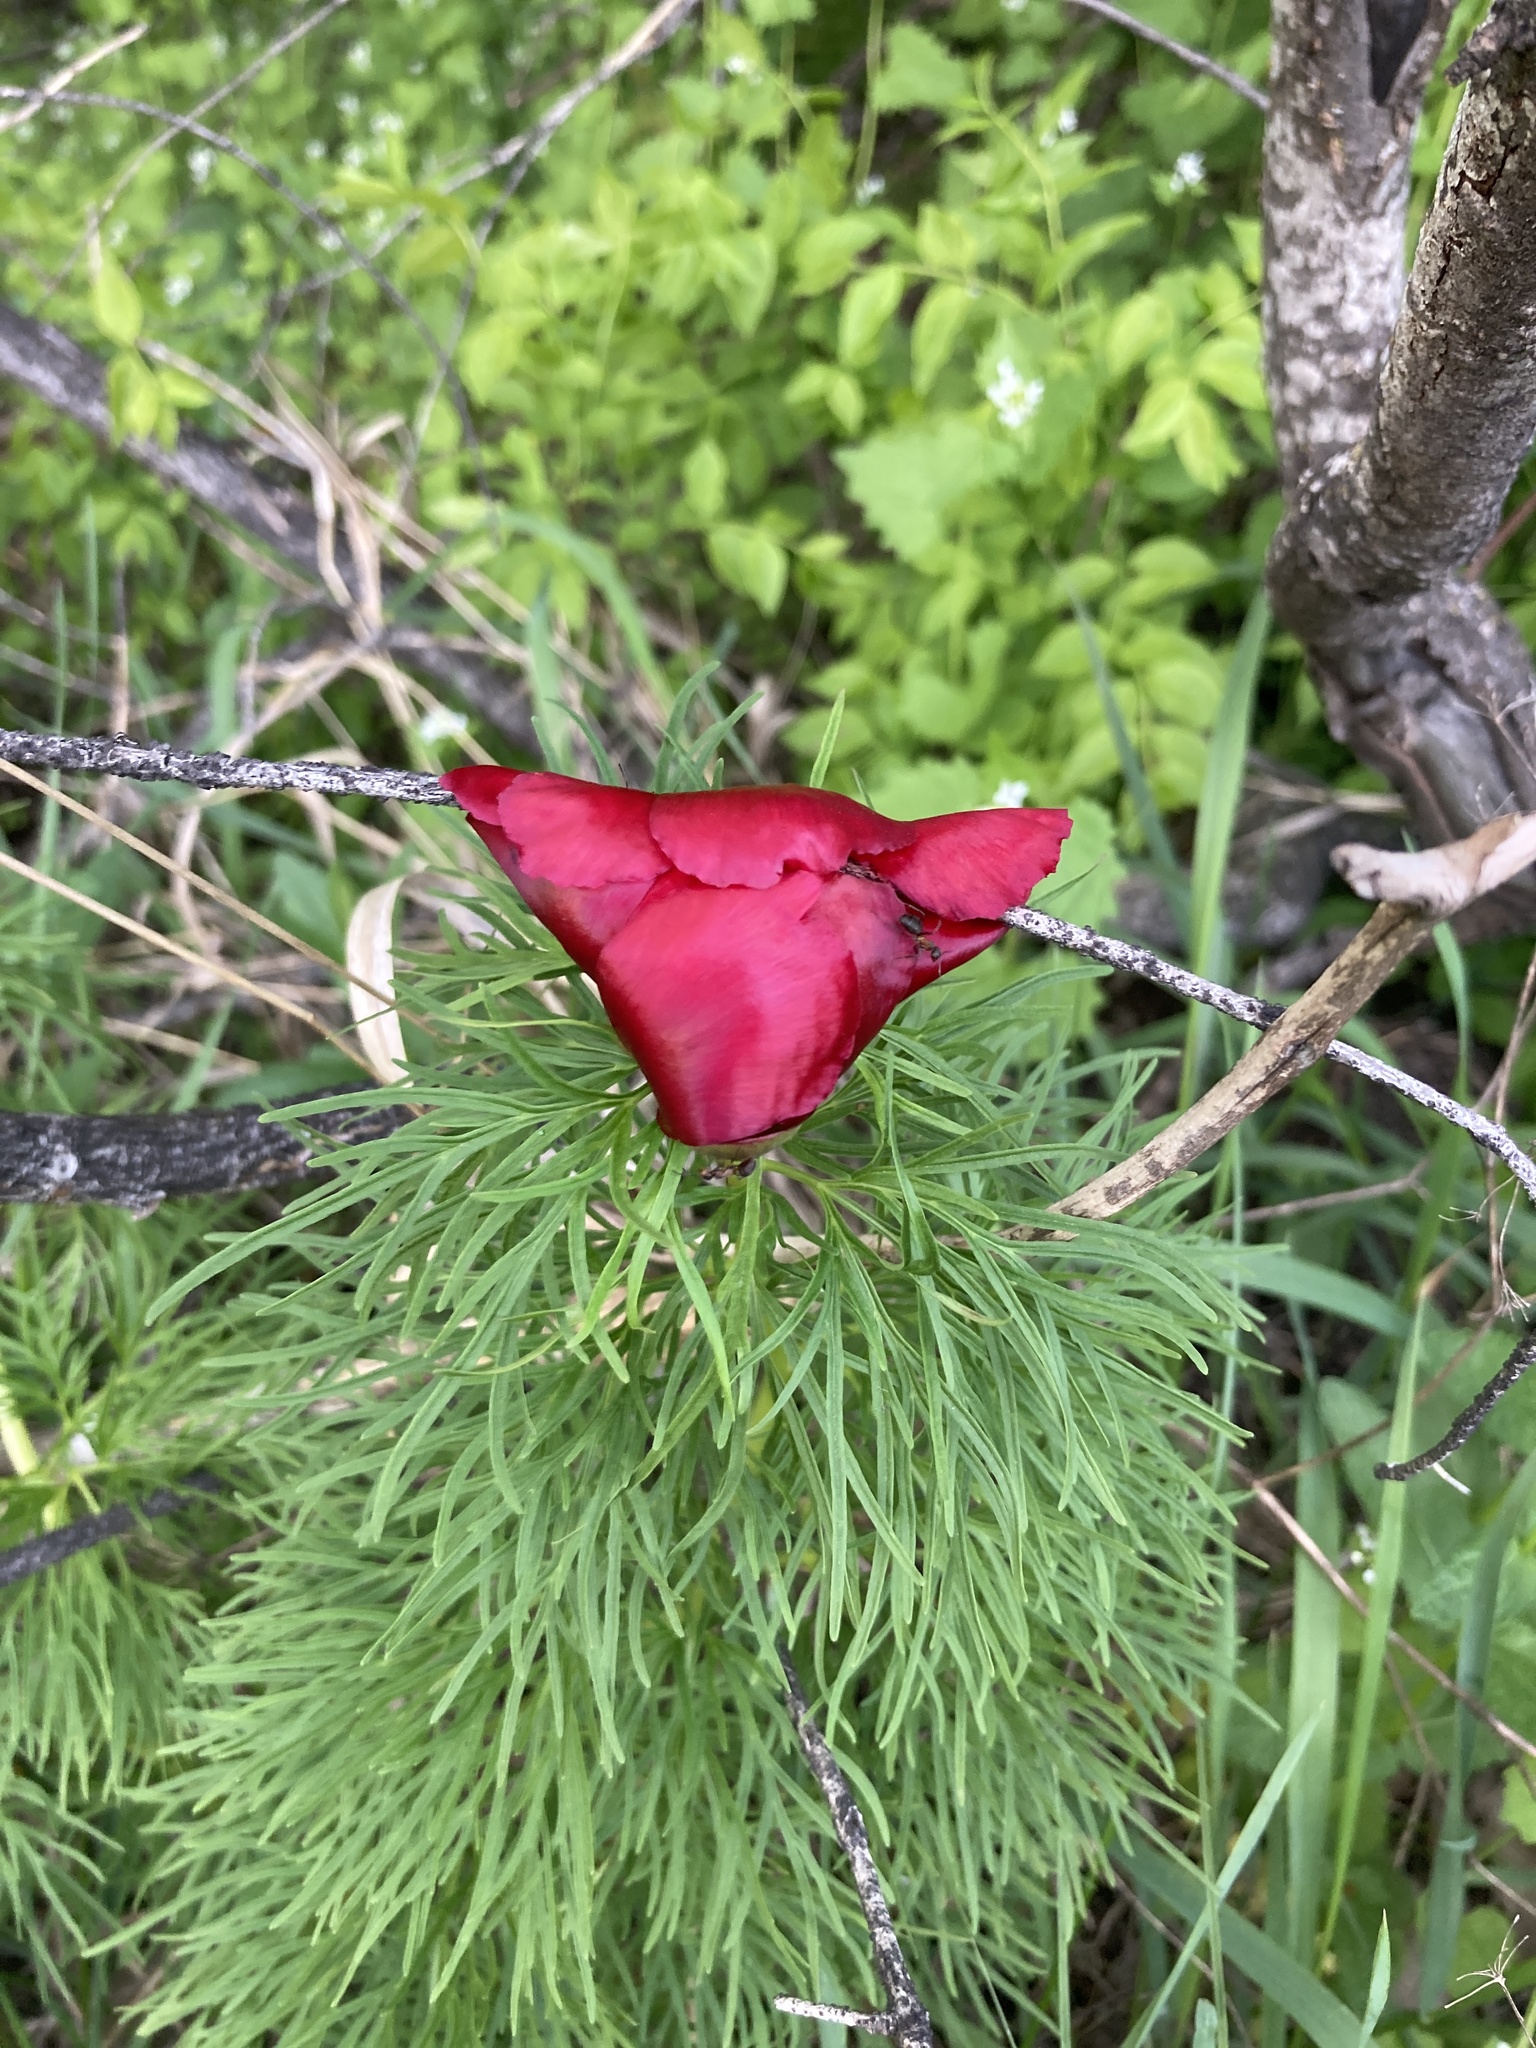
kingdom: Plantae
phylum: Tracheophyta
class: Magnoliopsida
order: Saxifragales
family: Paeoniaceae
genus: Paeonia
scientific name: Paeonia tenuifolia
